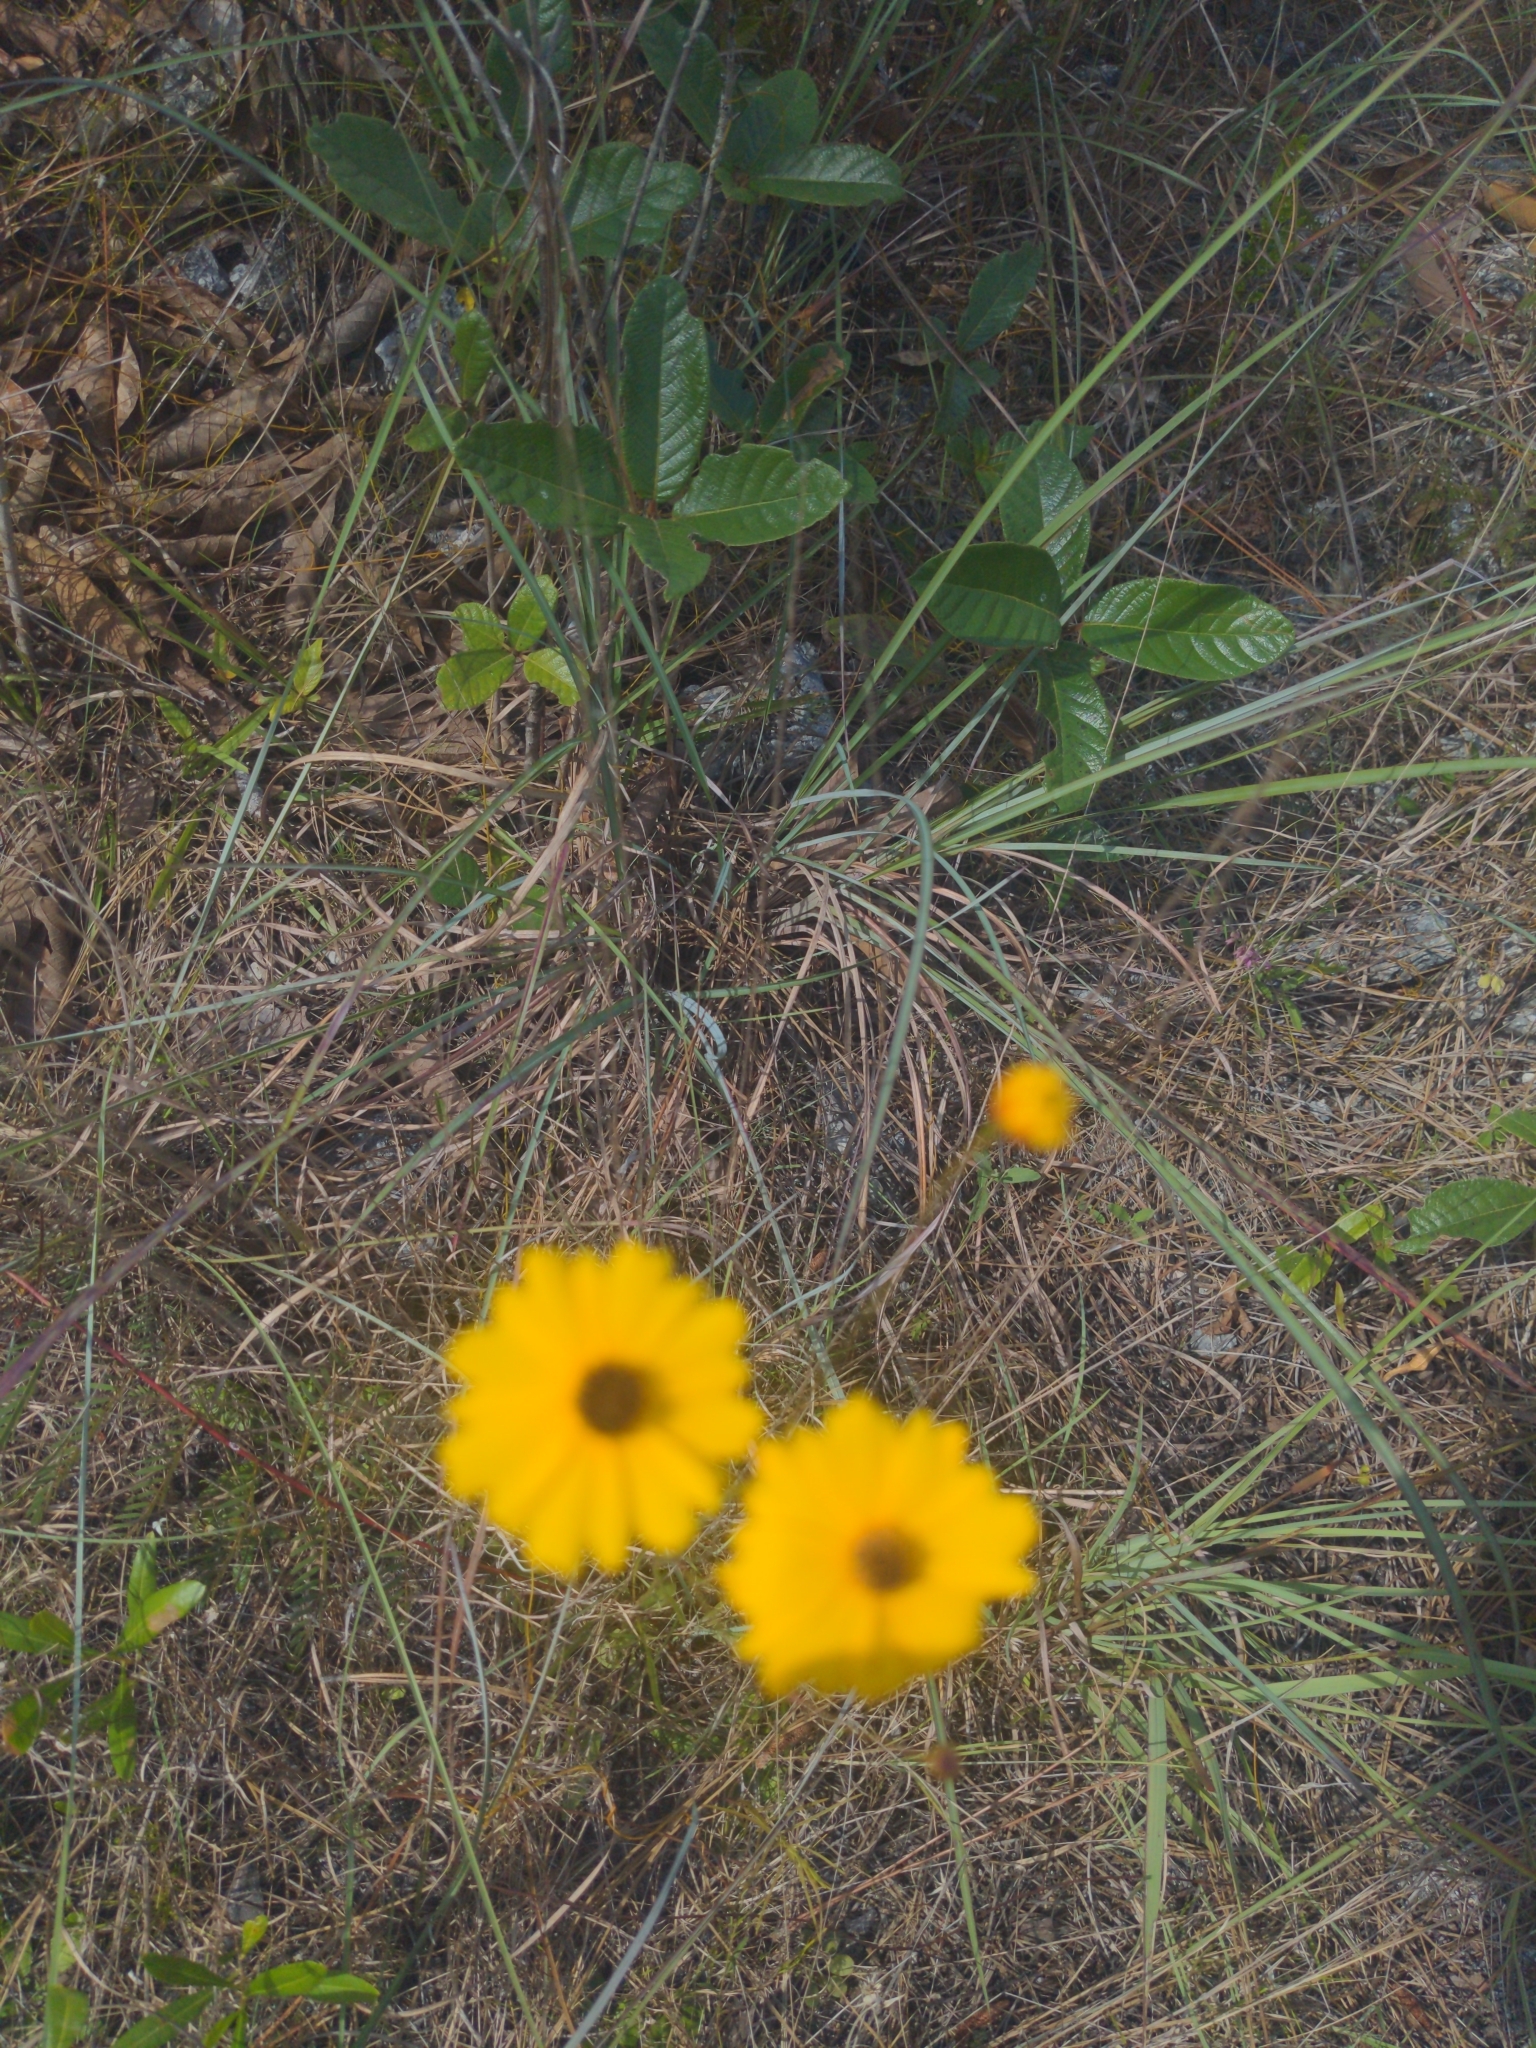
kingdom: Plantae
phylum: Tracheophyta
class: Magnoliopsida
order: Asterales
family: Asteraceae
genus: Coreopsis
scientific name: Coreopsis leavenworthii
